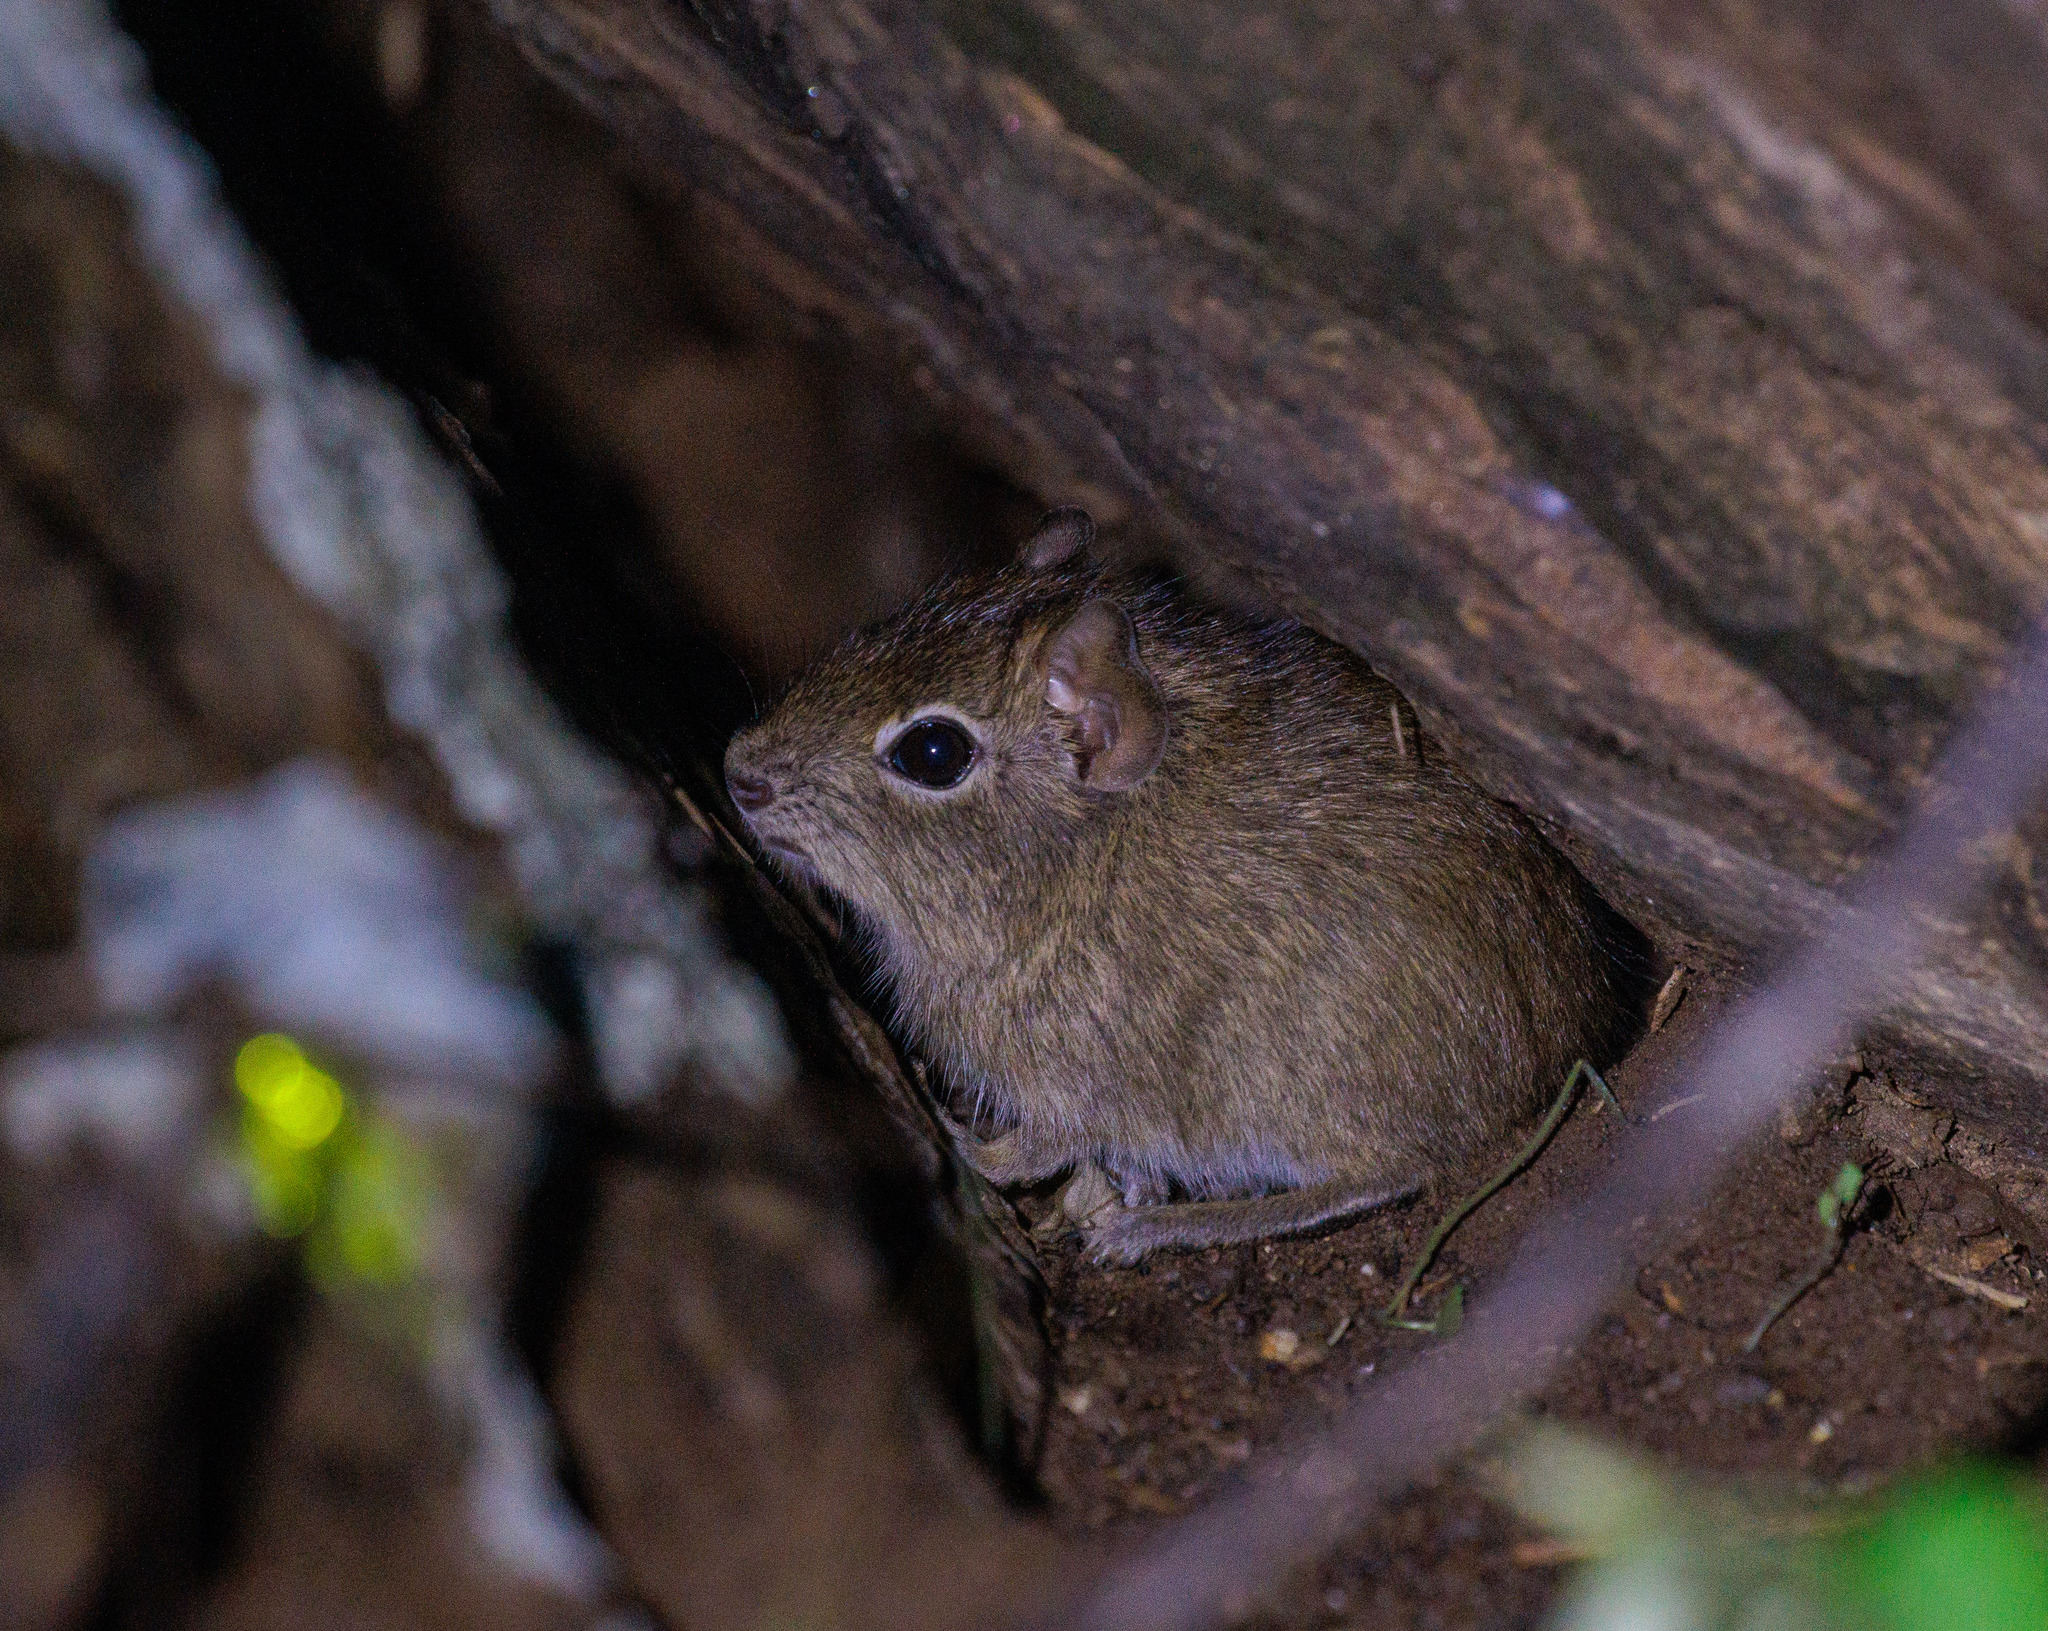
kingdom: Animalia
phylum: Chordata
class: Mammalia
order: Rodentia
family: Caviidae
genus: Galea
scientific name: Galea spixii
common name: Spix's yellow-toothed cavy
